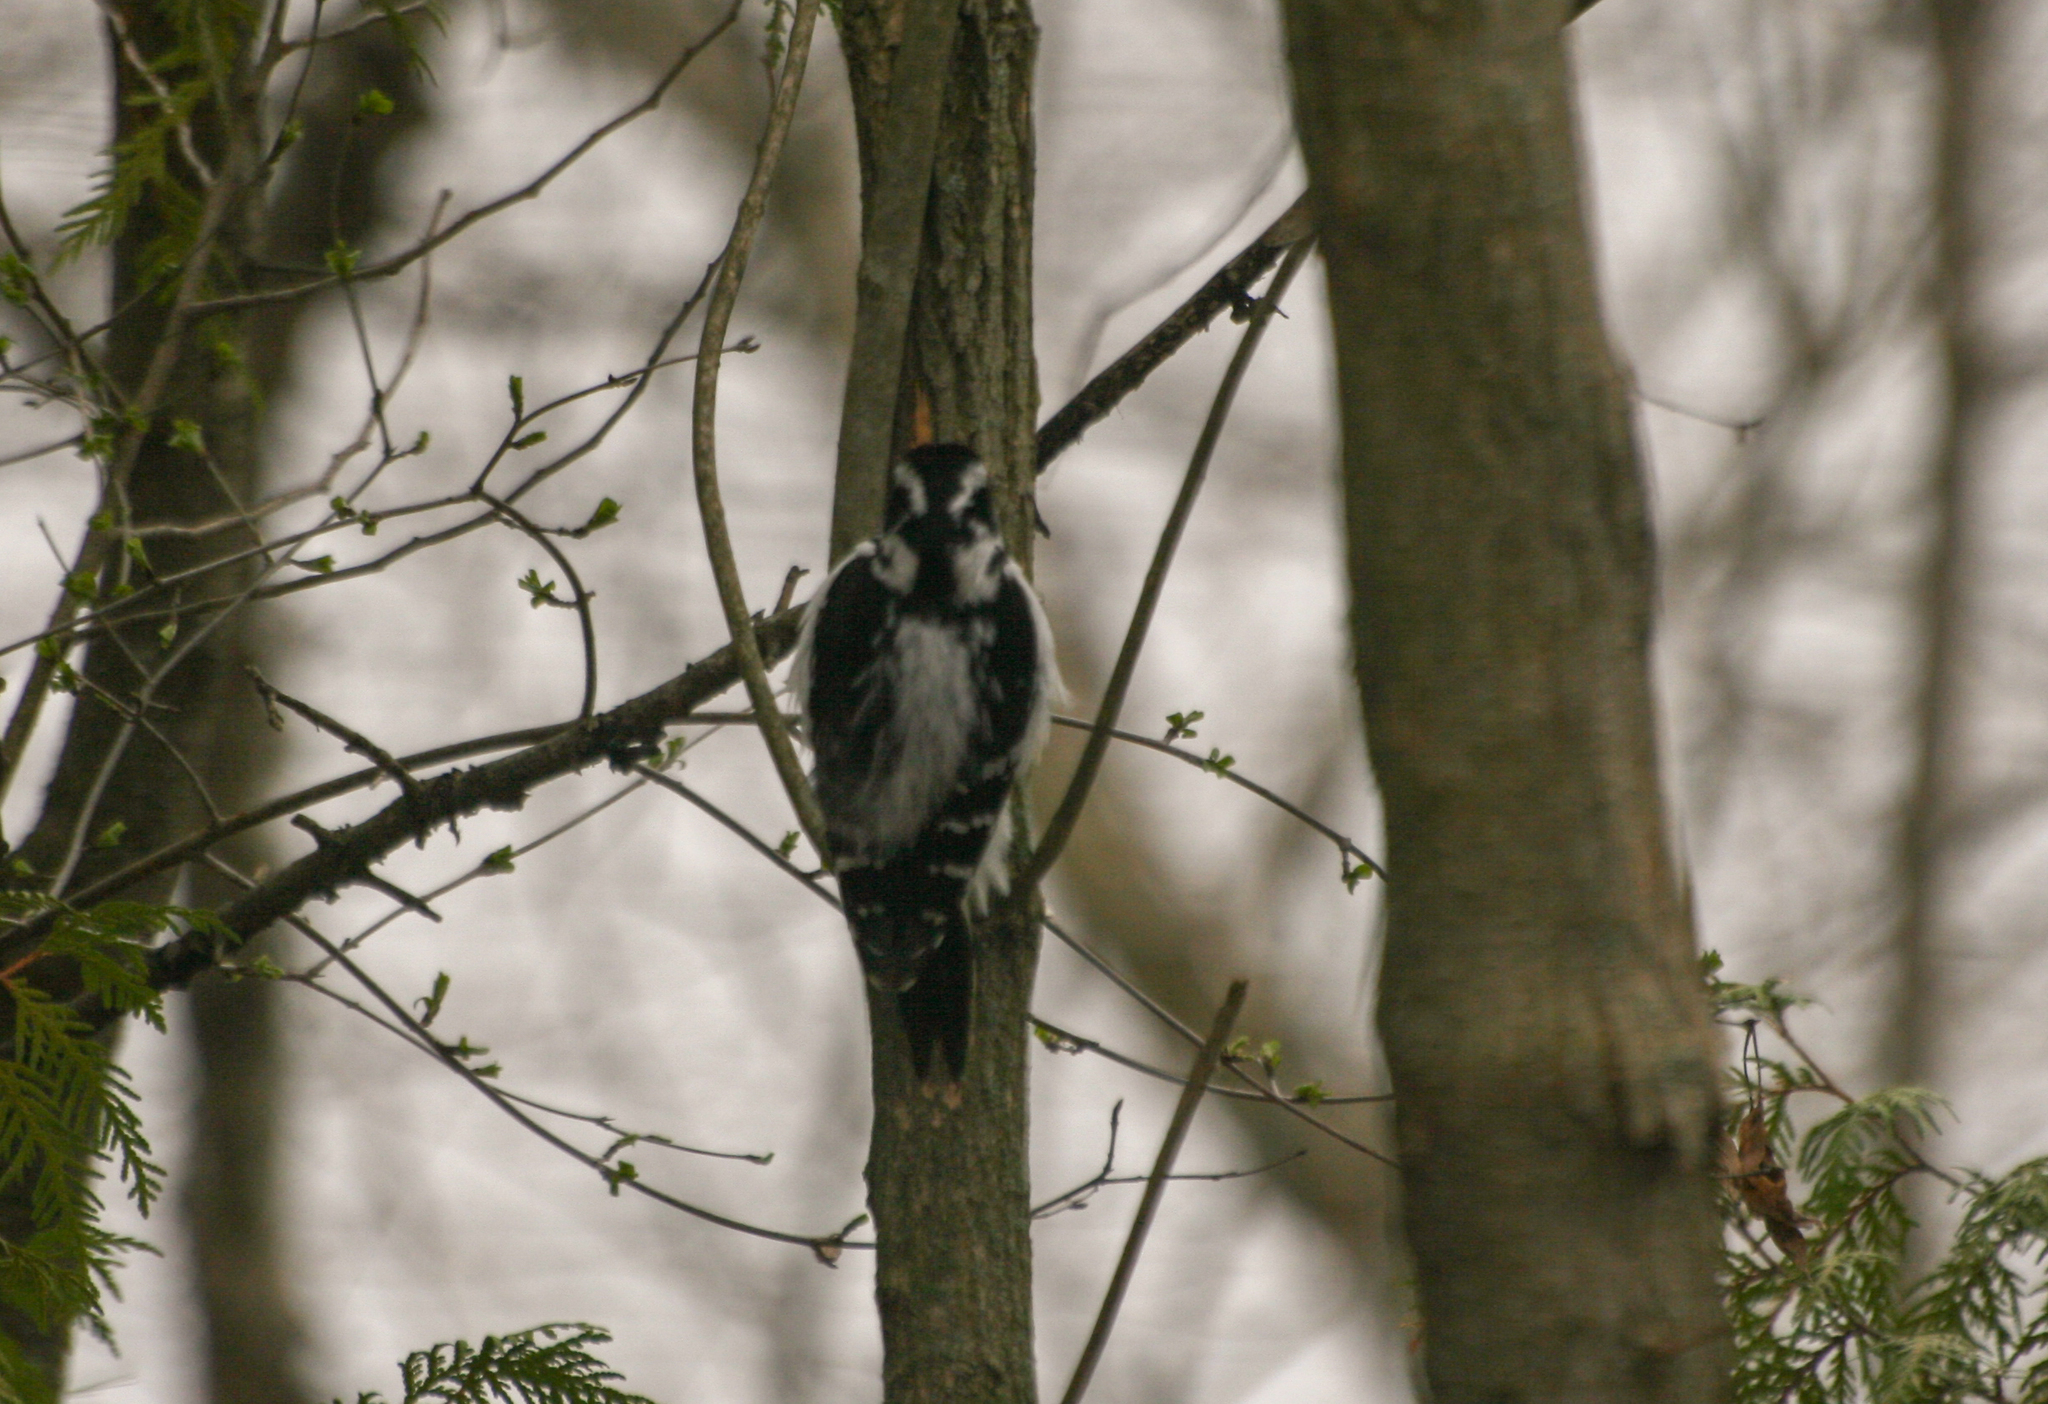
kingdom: Animalia
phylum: Chordata
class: Aves
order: Piciformes
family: Picidae
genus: Dryobates
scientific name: Dryobates pubescens
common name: Downy woodpecker
